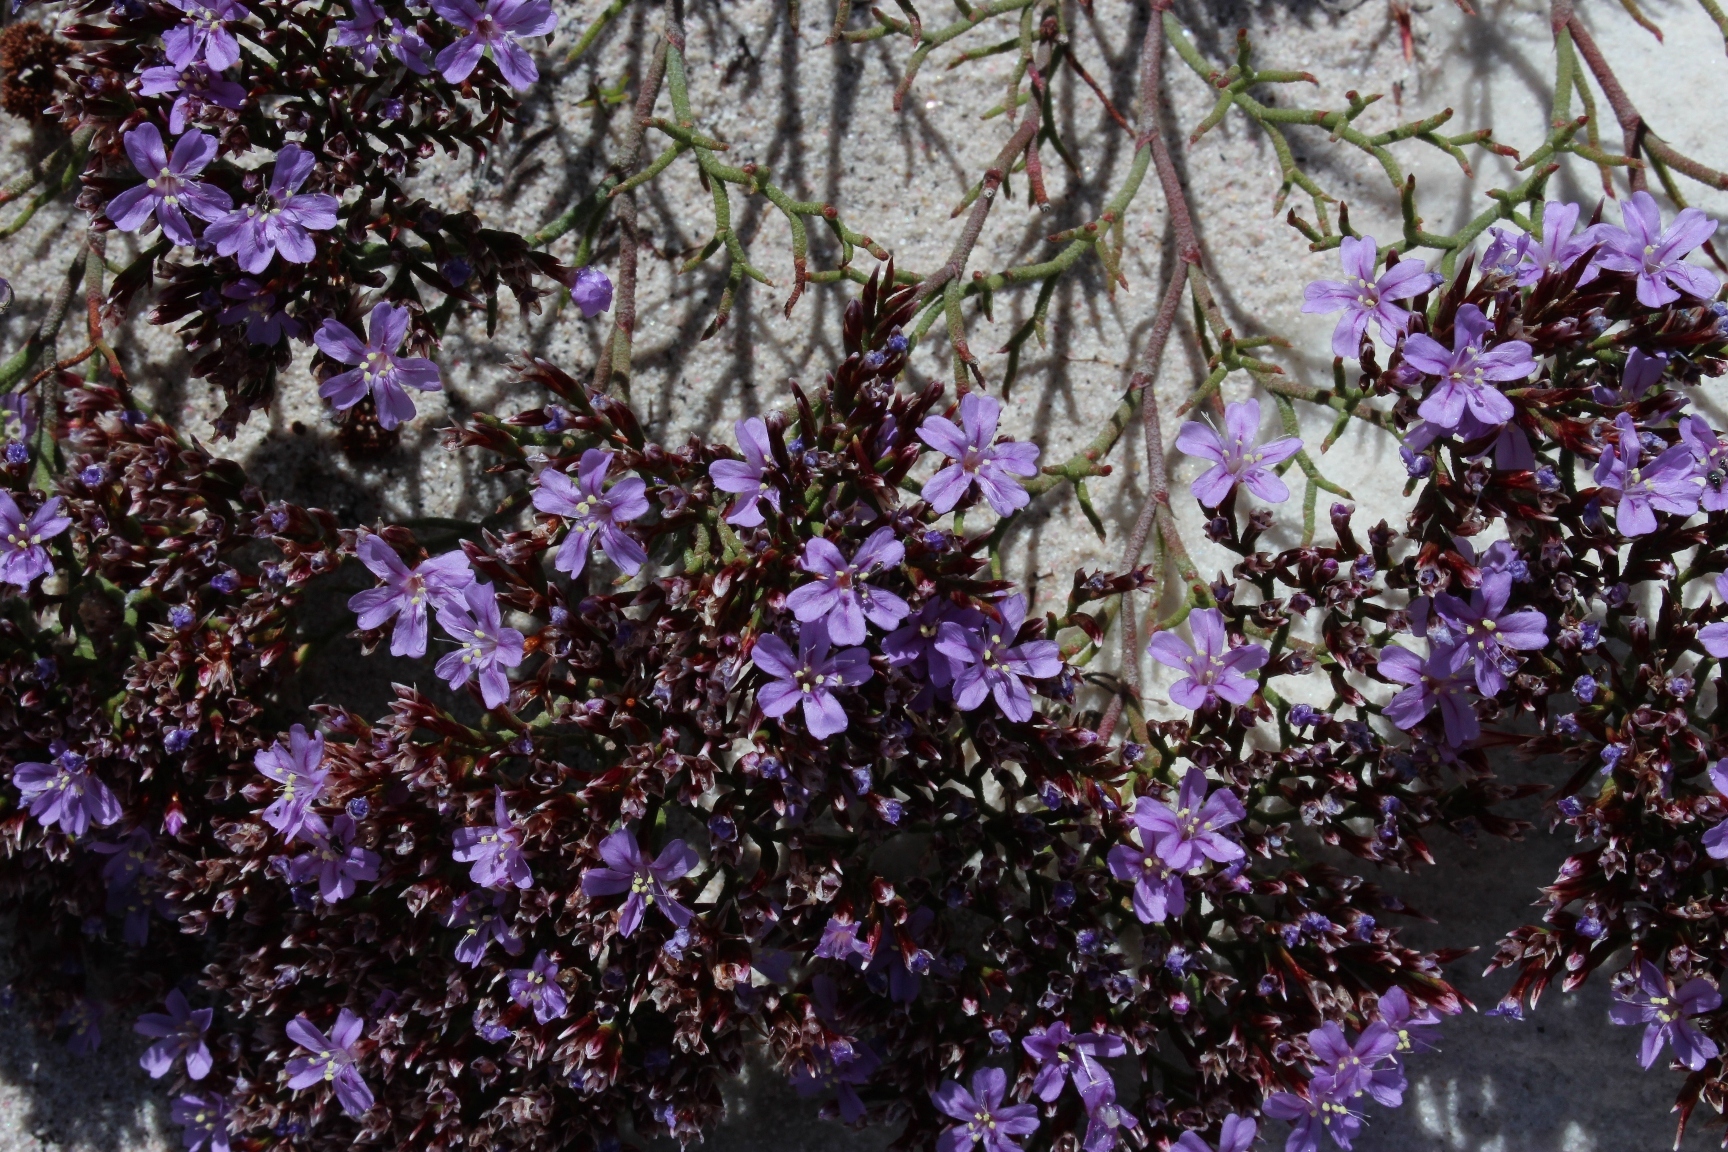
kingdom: Plantae
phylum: Tracheophyta
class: Magnoliopsida
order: Caryophyllales
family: Plumbaginaceae
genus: Limonium
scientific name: Limonium scabrum
